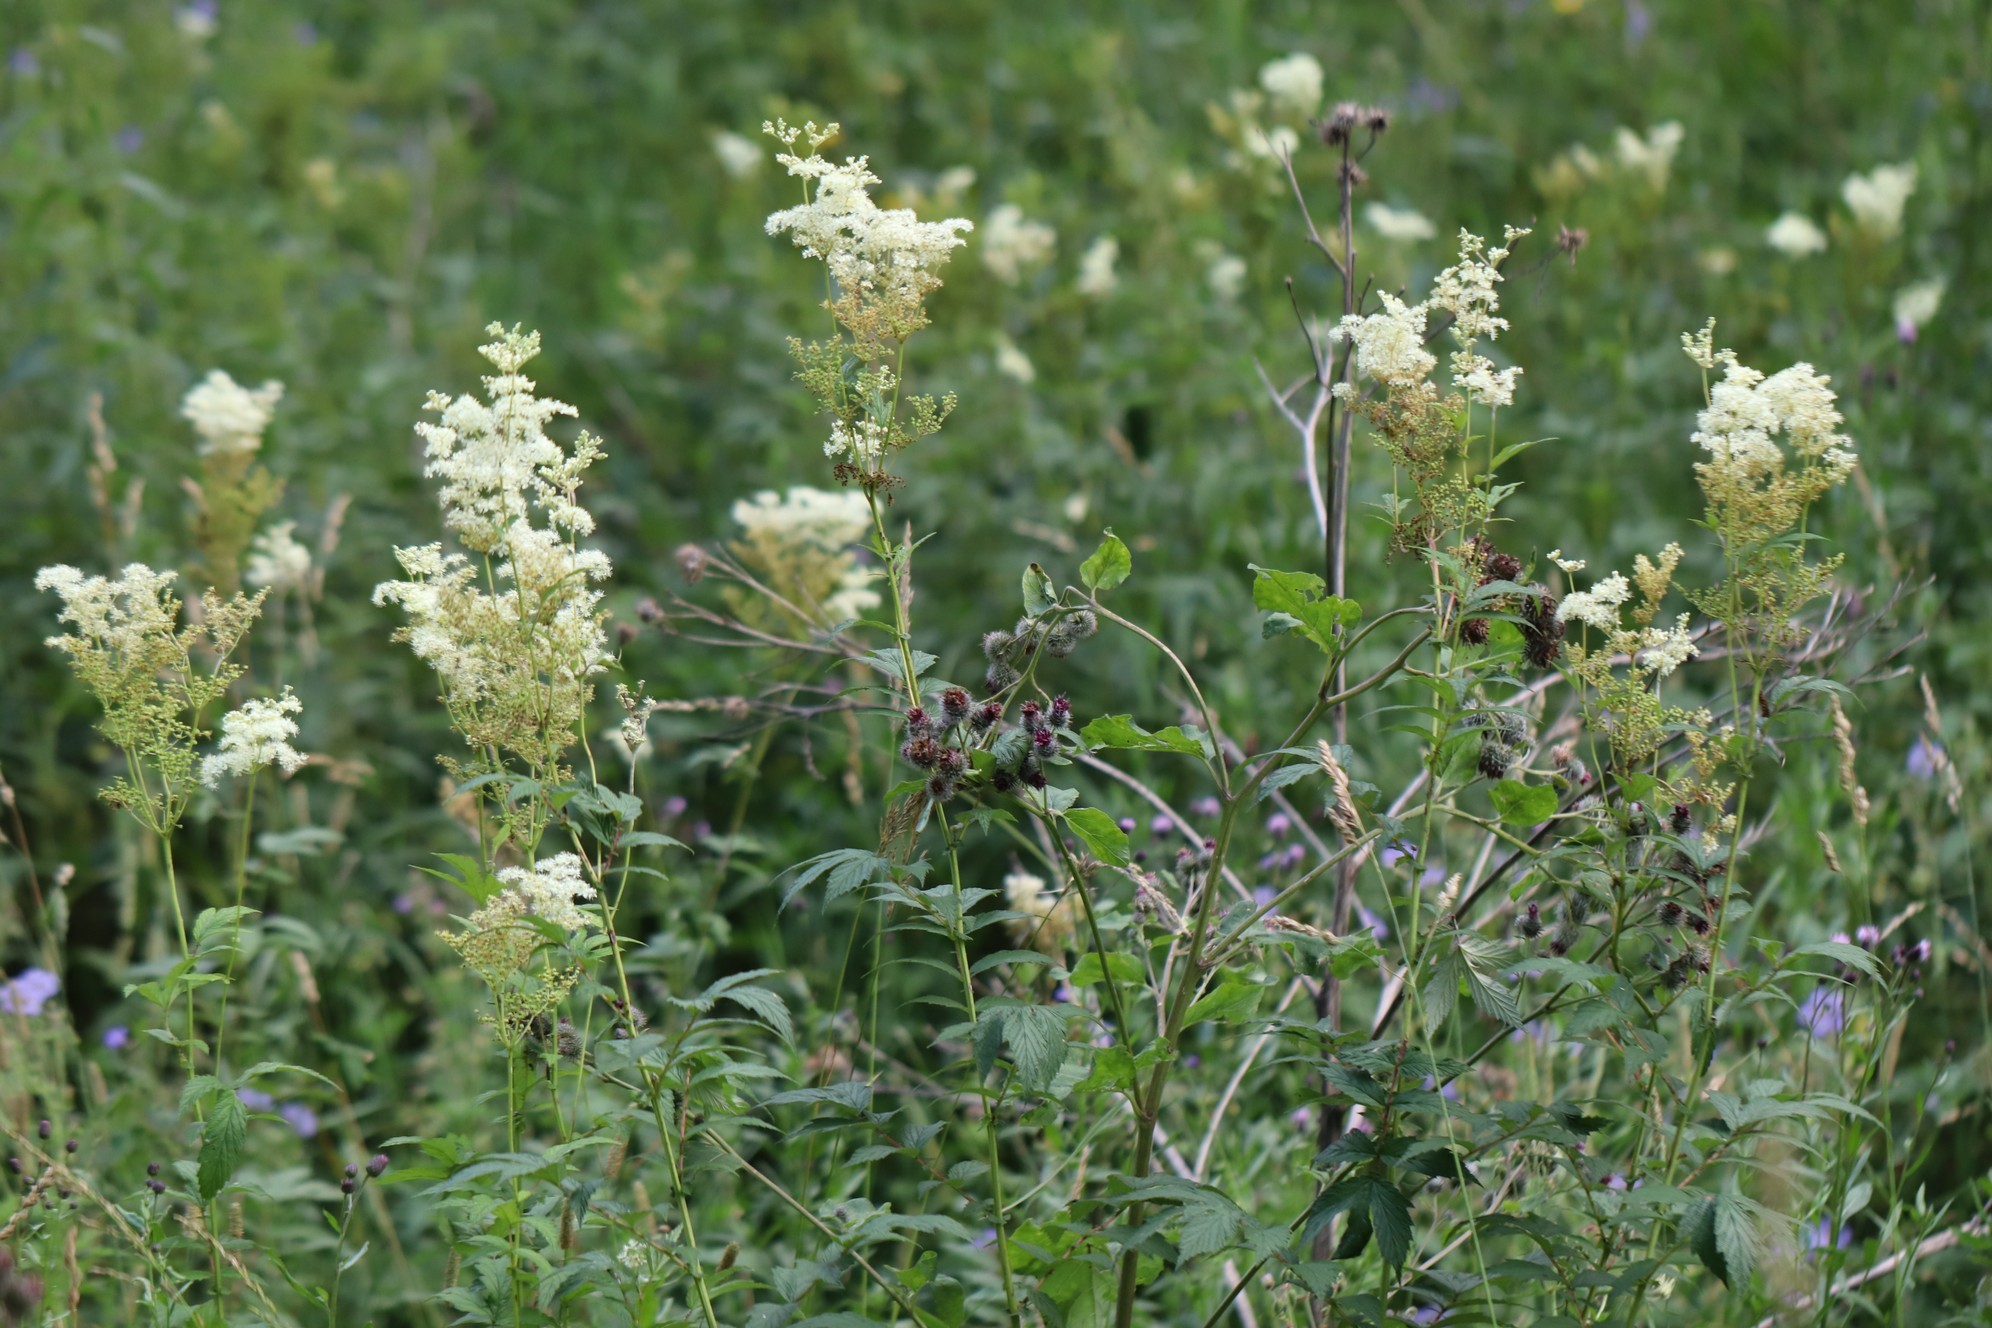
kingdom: Plantae
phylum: Tracheophyta
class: Magnoliopsida
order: Rosales
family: Rosaceae
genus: Filipendula
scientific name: Filipendula ulmaria
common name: Meadowsweet
